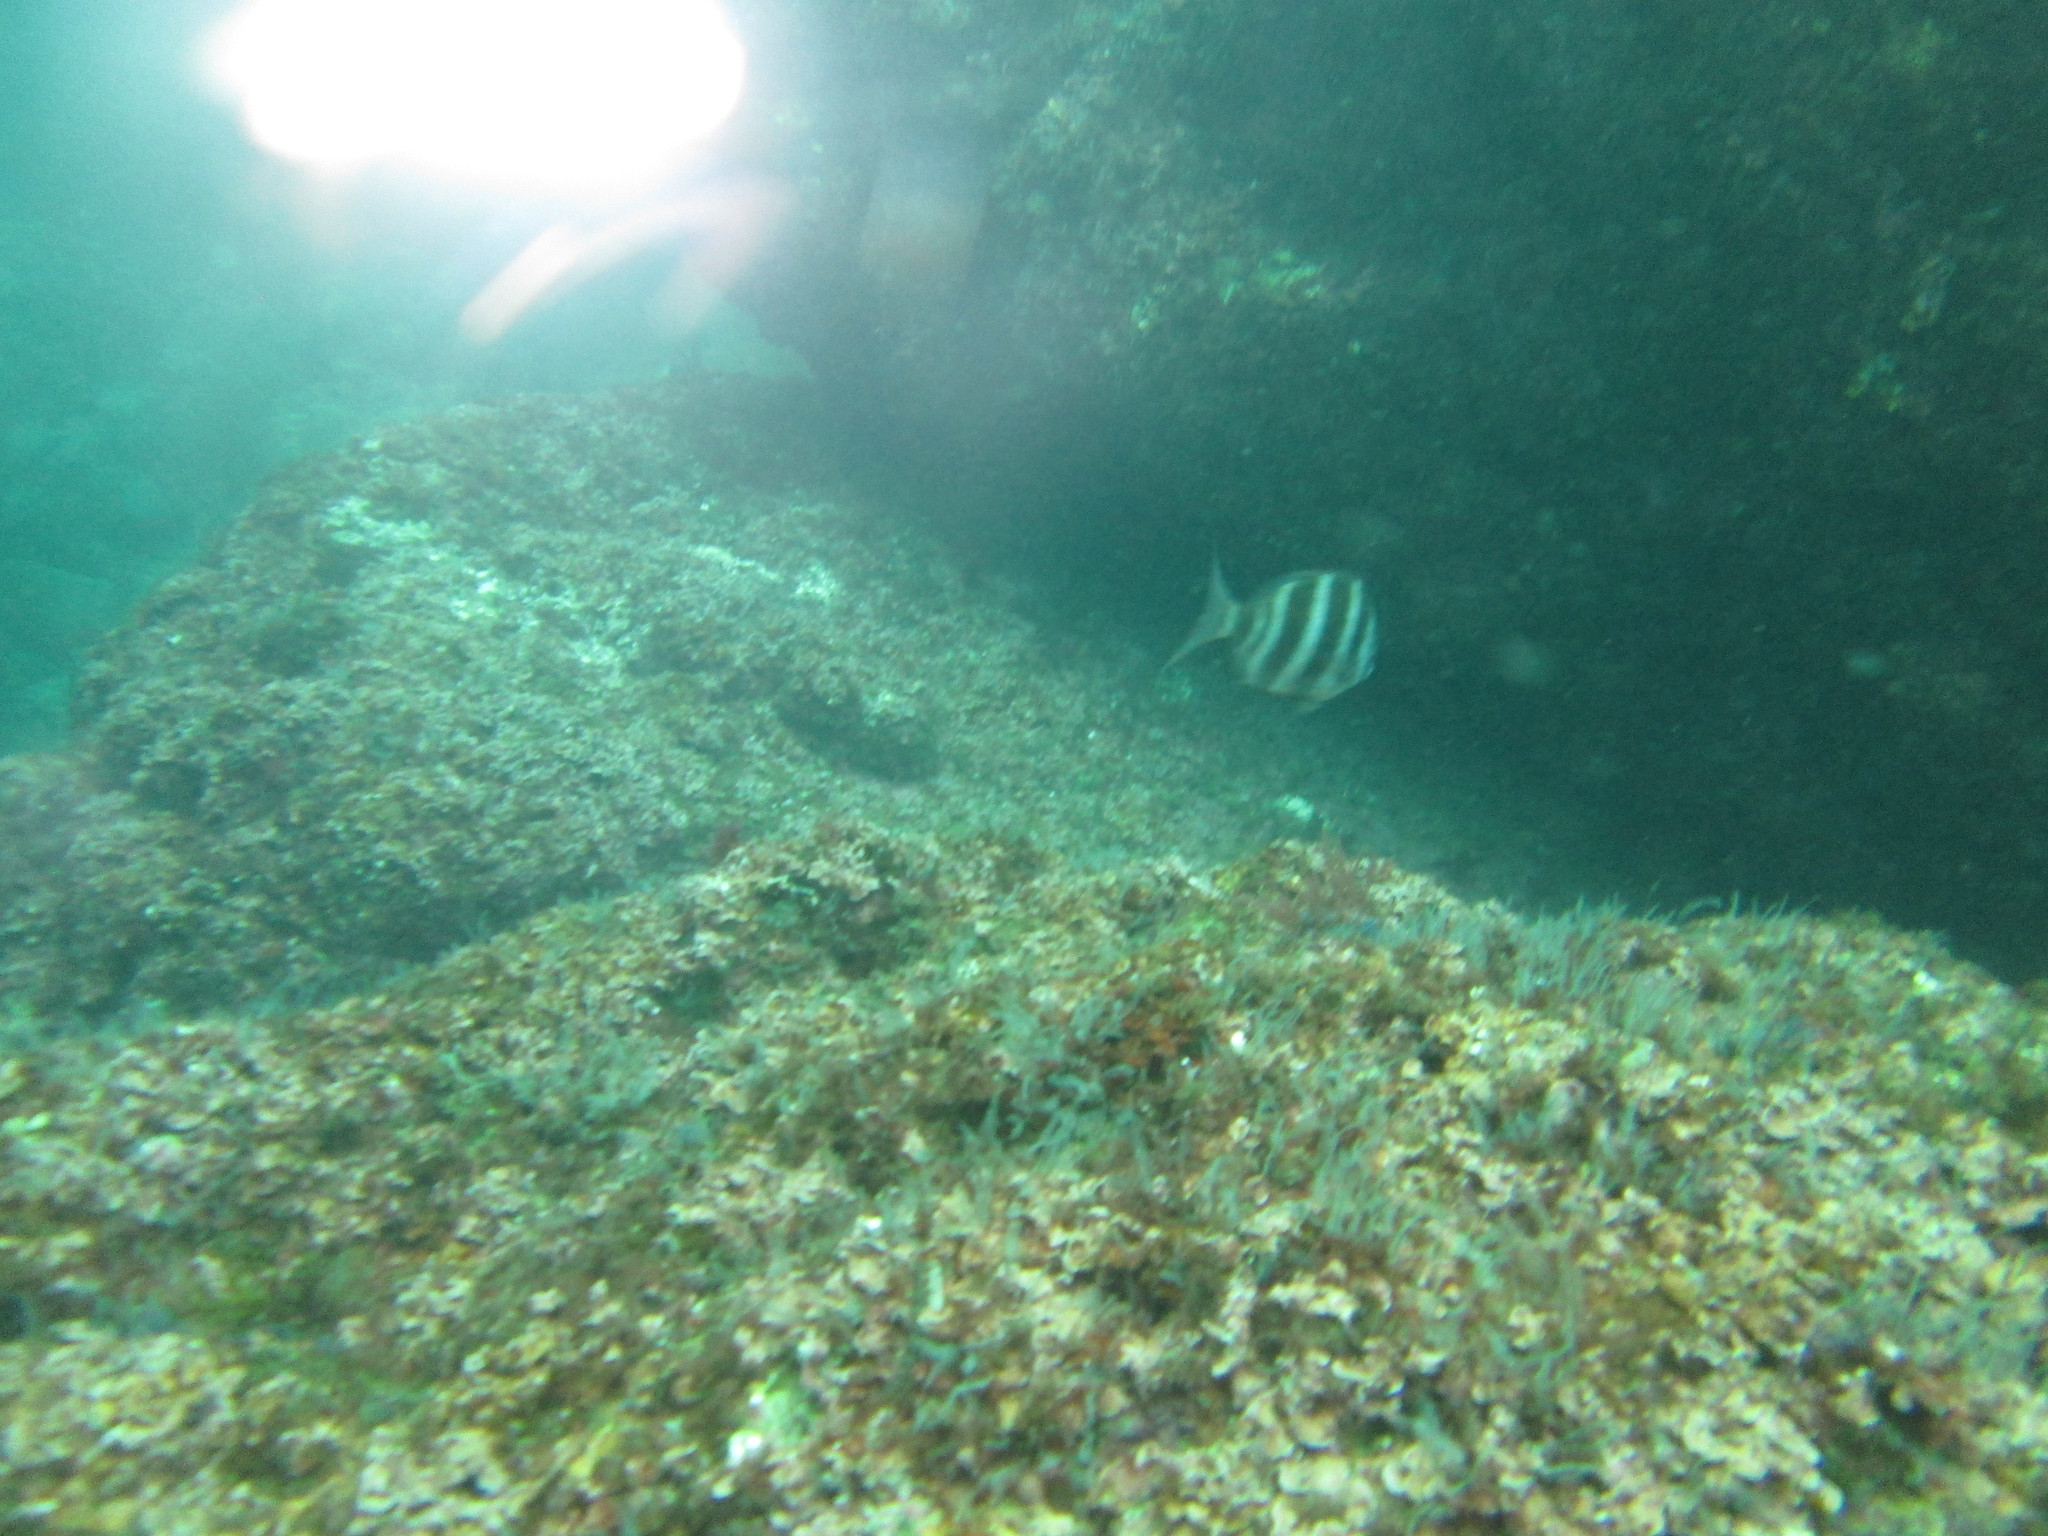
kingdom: Animalia
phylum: Chordata
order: Perciformes
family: Sparidae
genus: Diplodus
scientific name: Diplodus cervinus
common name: Oman porgy
